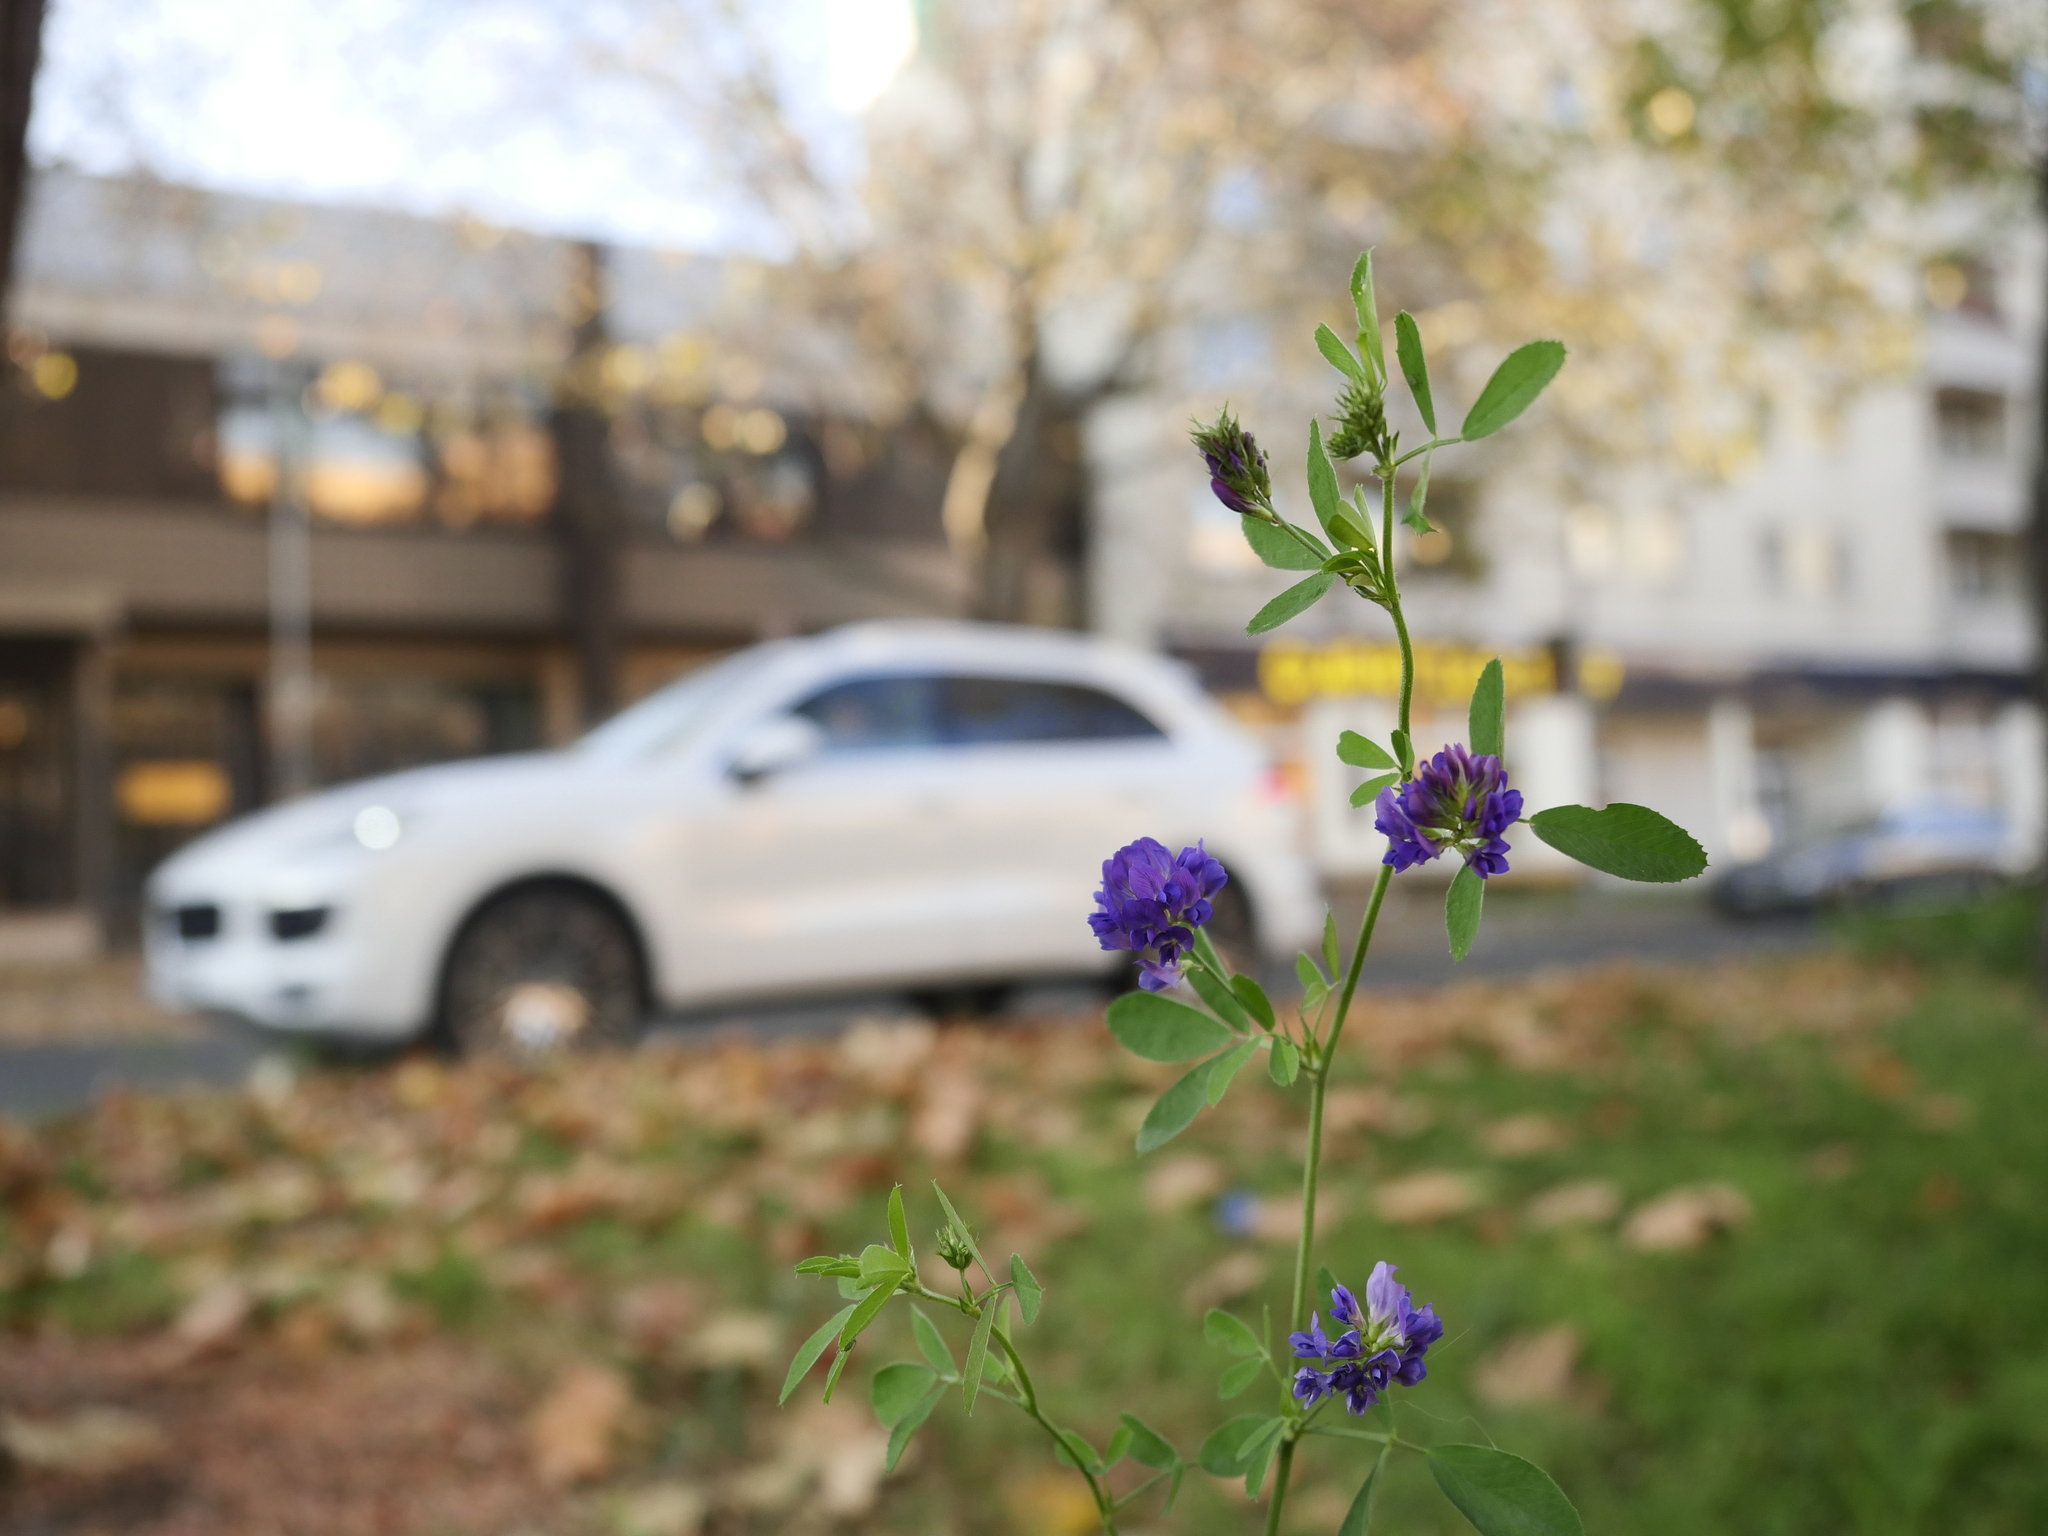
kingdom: Plantae
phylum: Tracheophyta
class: Magnoliopsida
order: Fabales
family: Fabaceae
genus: Medicago
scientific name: Medicago
